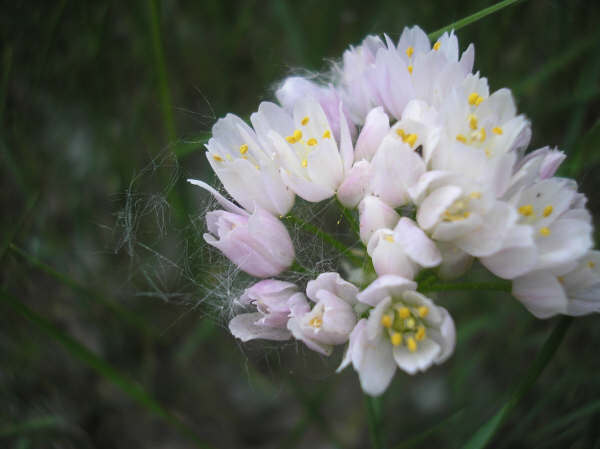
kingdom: Plantae
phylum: Tracheophyta
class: Liliopsida
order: Asparagales
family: Amaryllidaceae
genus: Allium
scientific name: Allium roseum
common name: Rosy garlic
